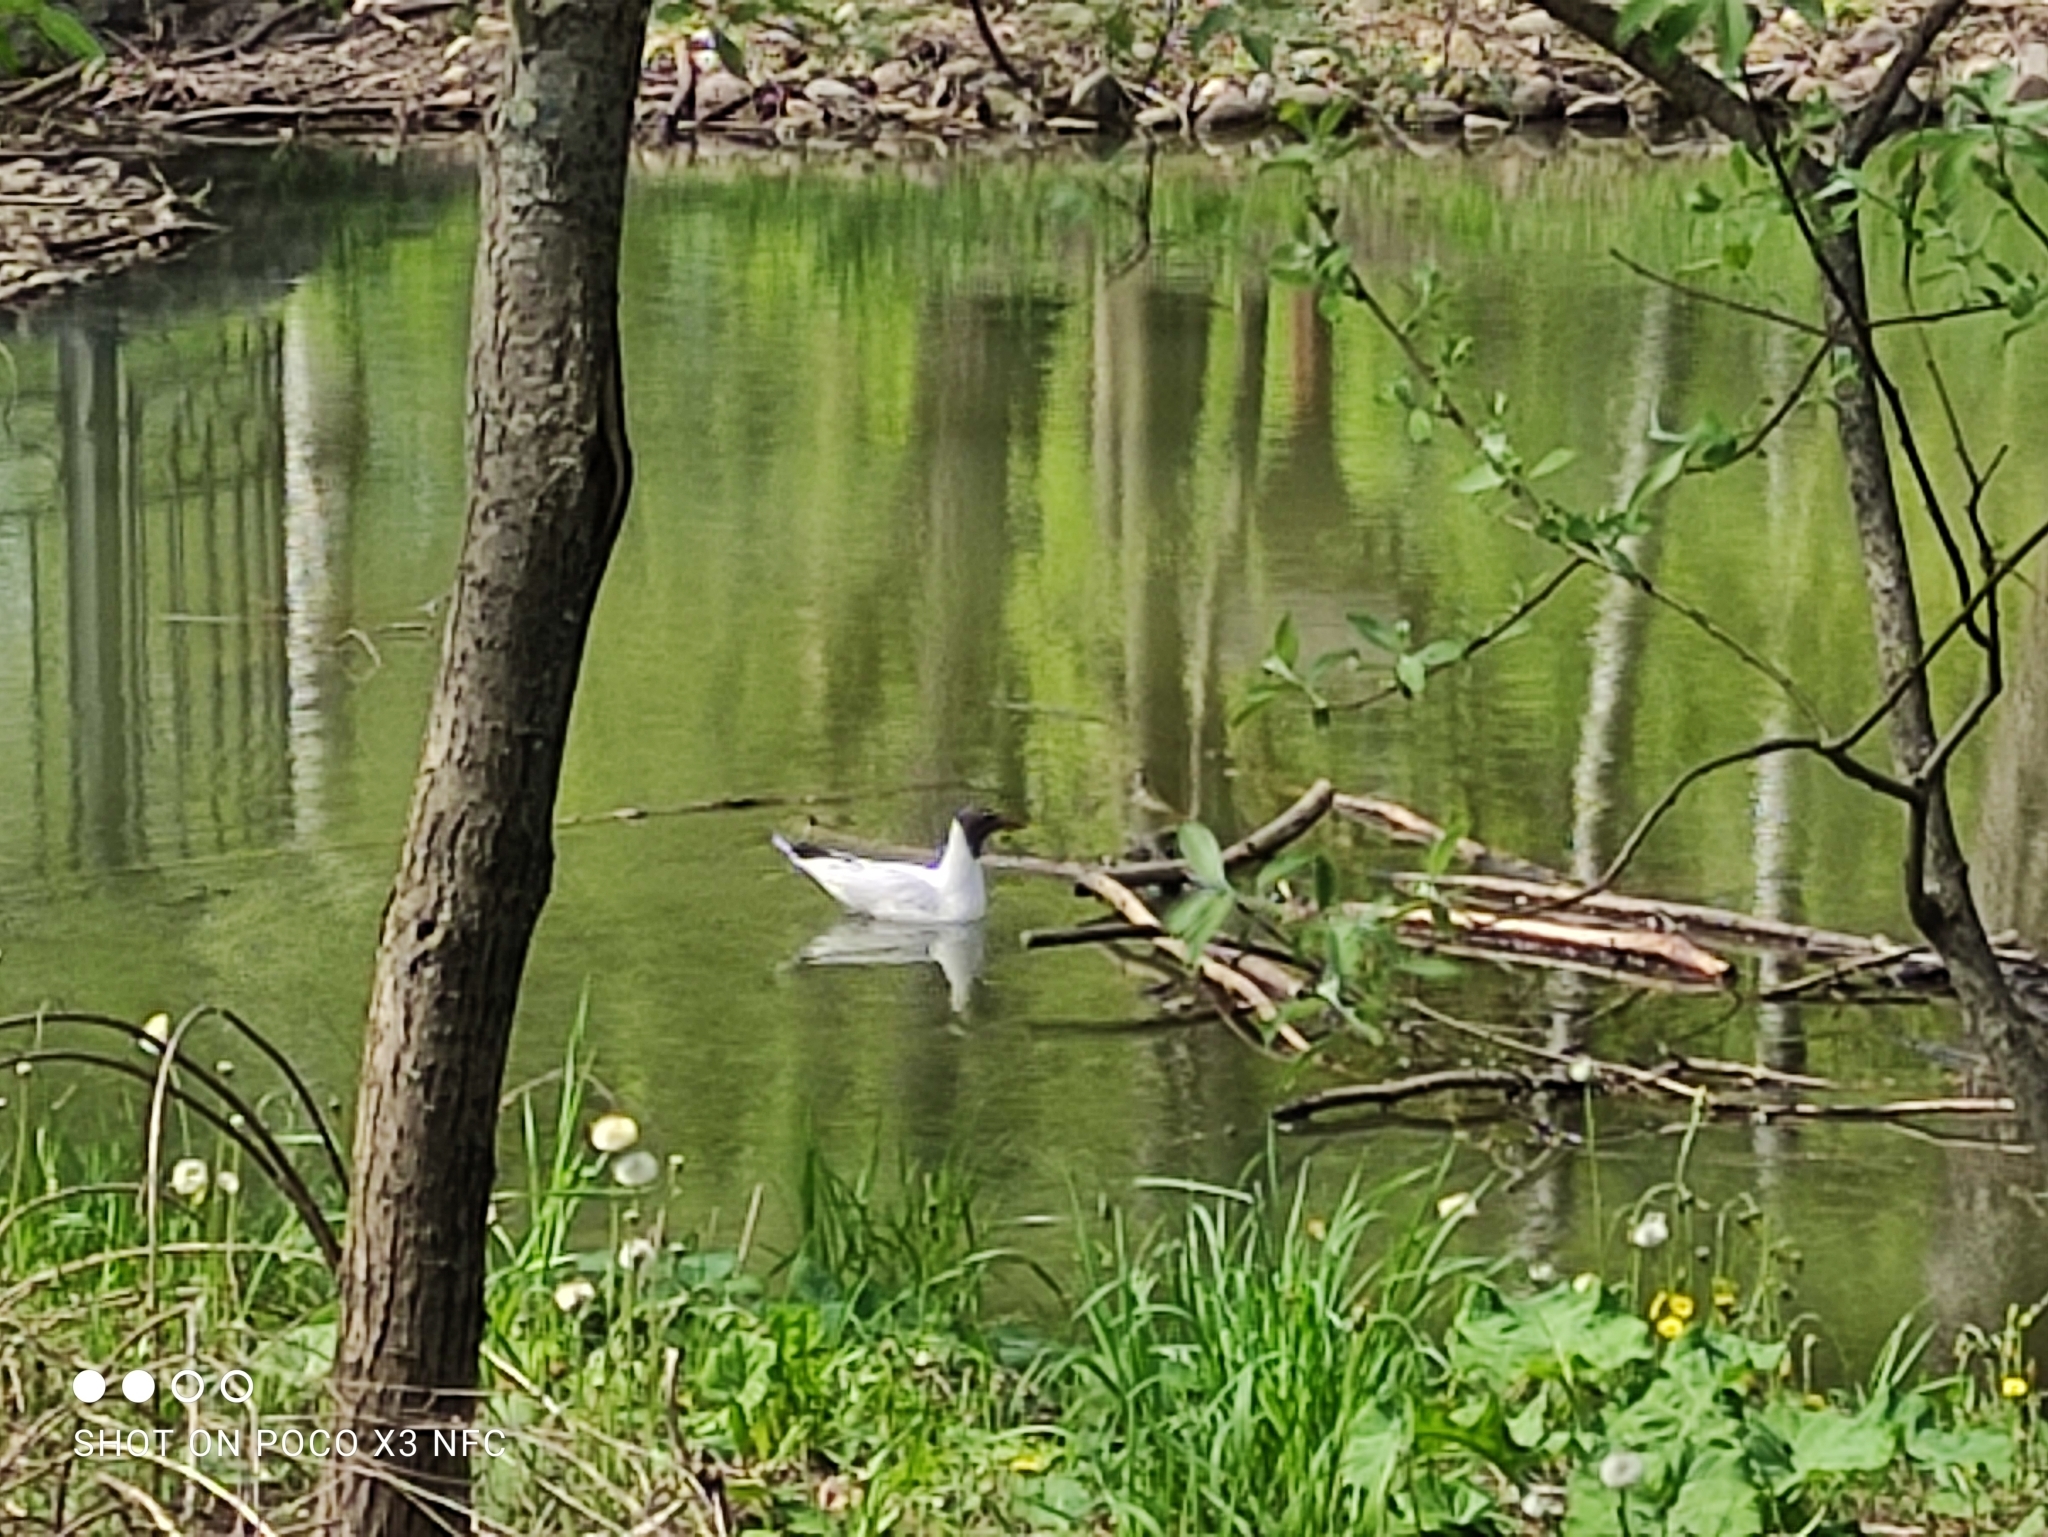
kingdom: Animalia
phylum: Chordata
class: Aves
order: Charadriiformes
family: Laridae
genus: Chroicocephalus
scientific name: Chroicocephalus ridibundus
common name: Black-headed gull
